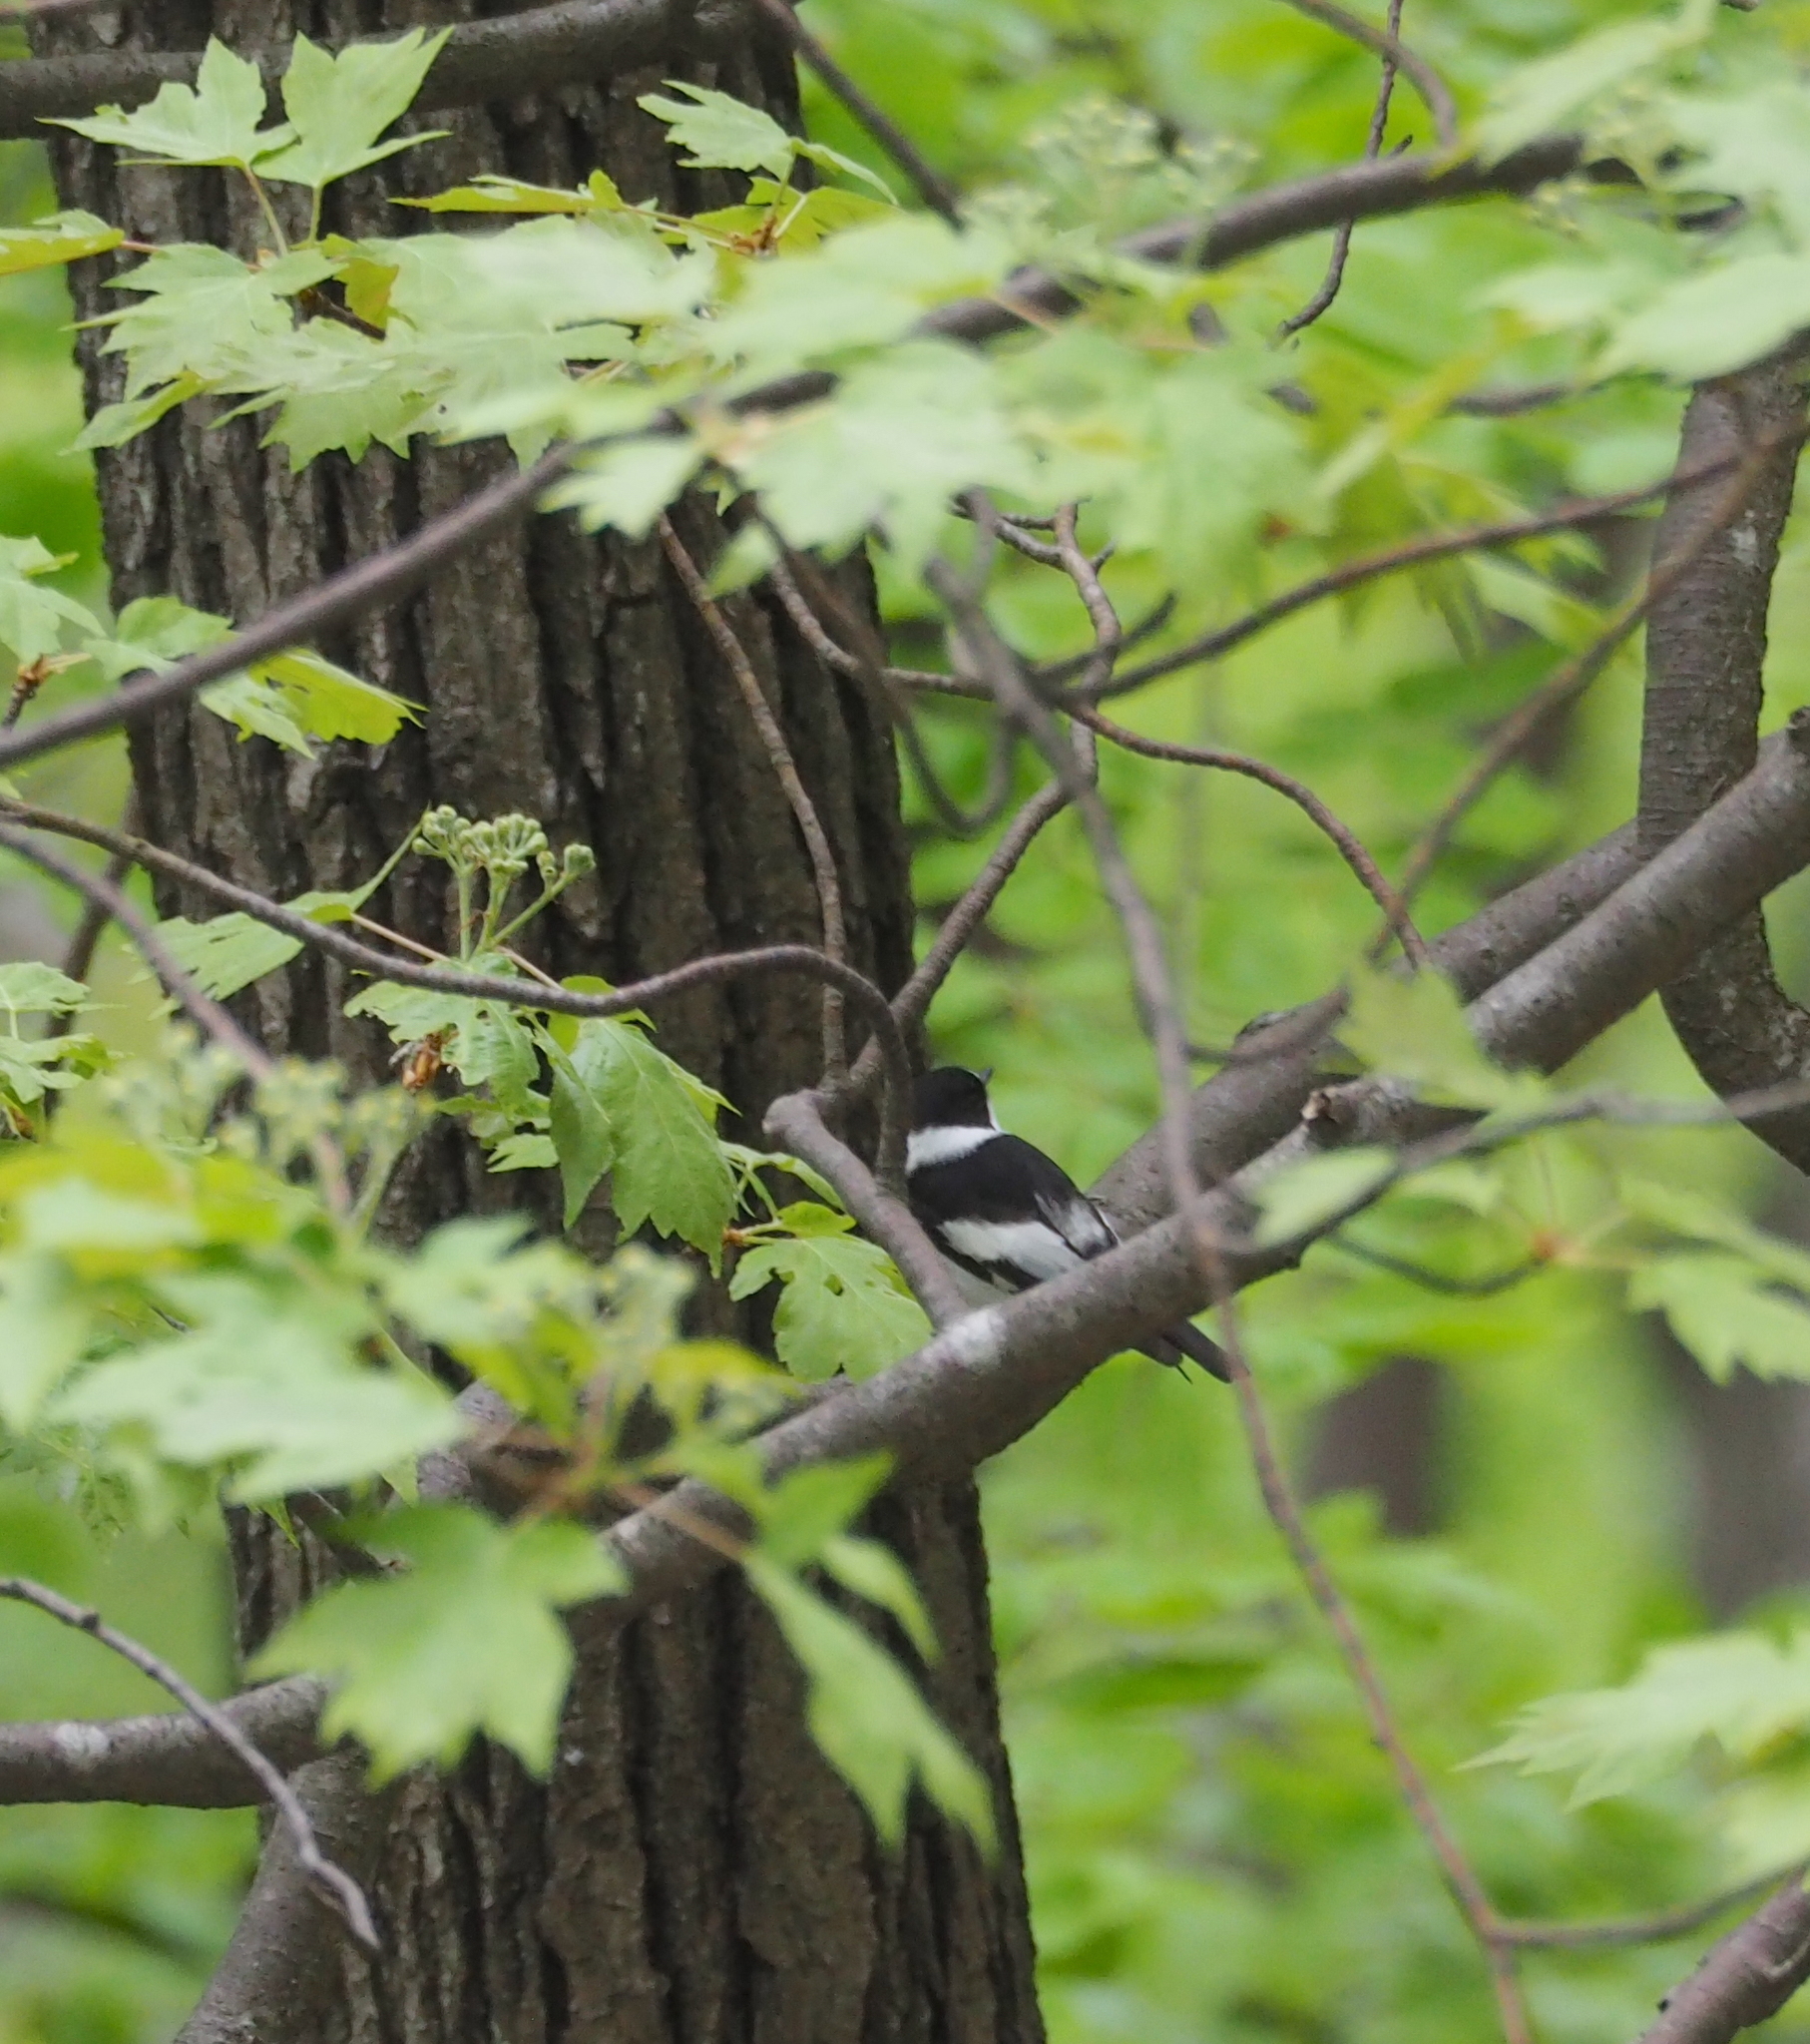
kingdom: Animalia
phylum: Chordata
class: Aves
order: Passeriformes
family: Muscicapidae
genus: Ficedula
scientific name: Ficedula albicollis
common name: Collared flycatcher
